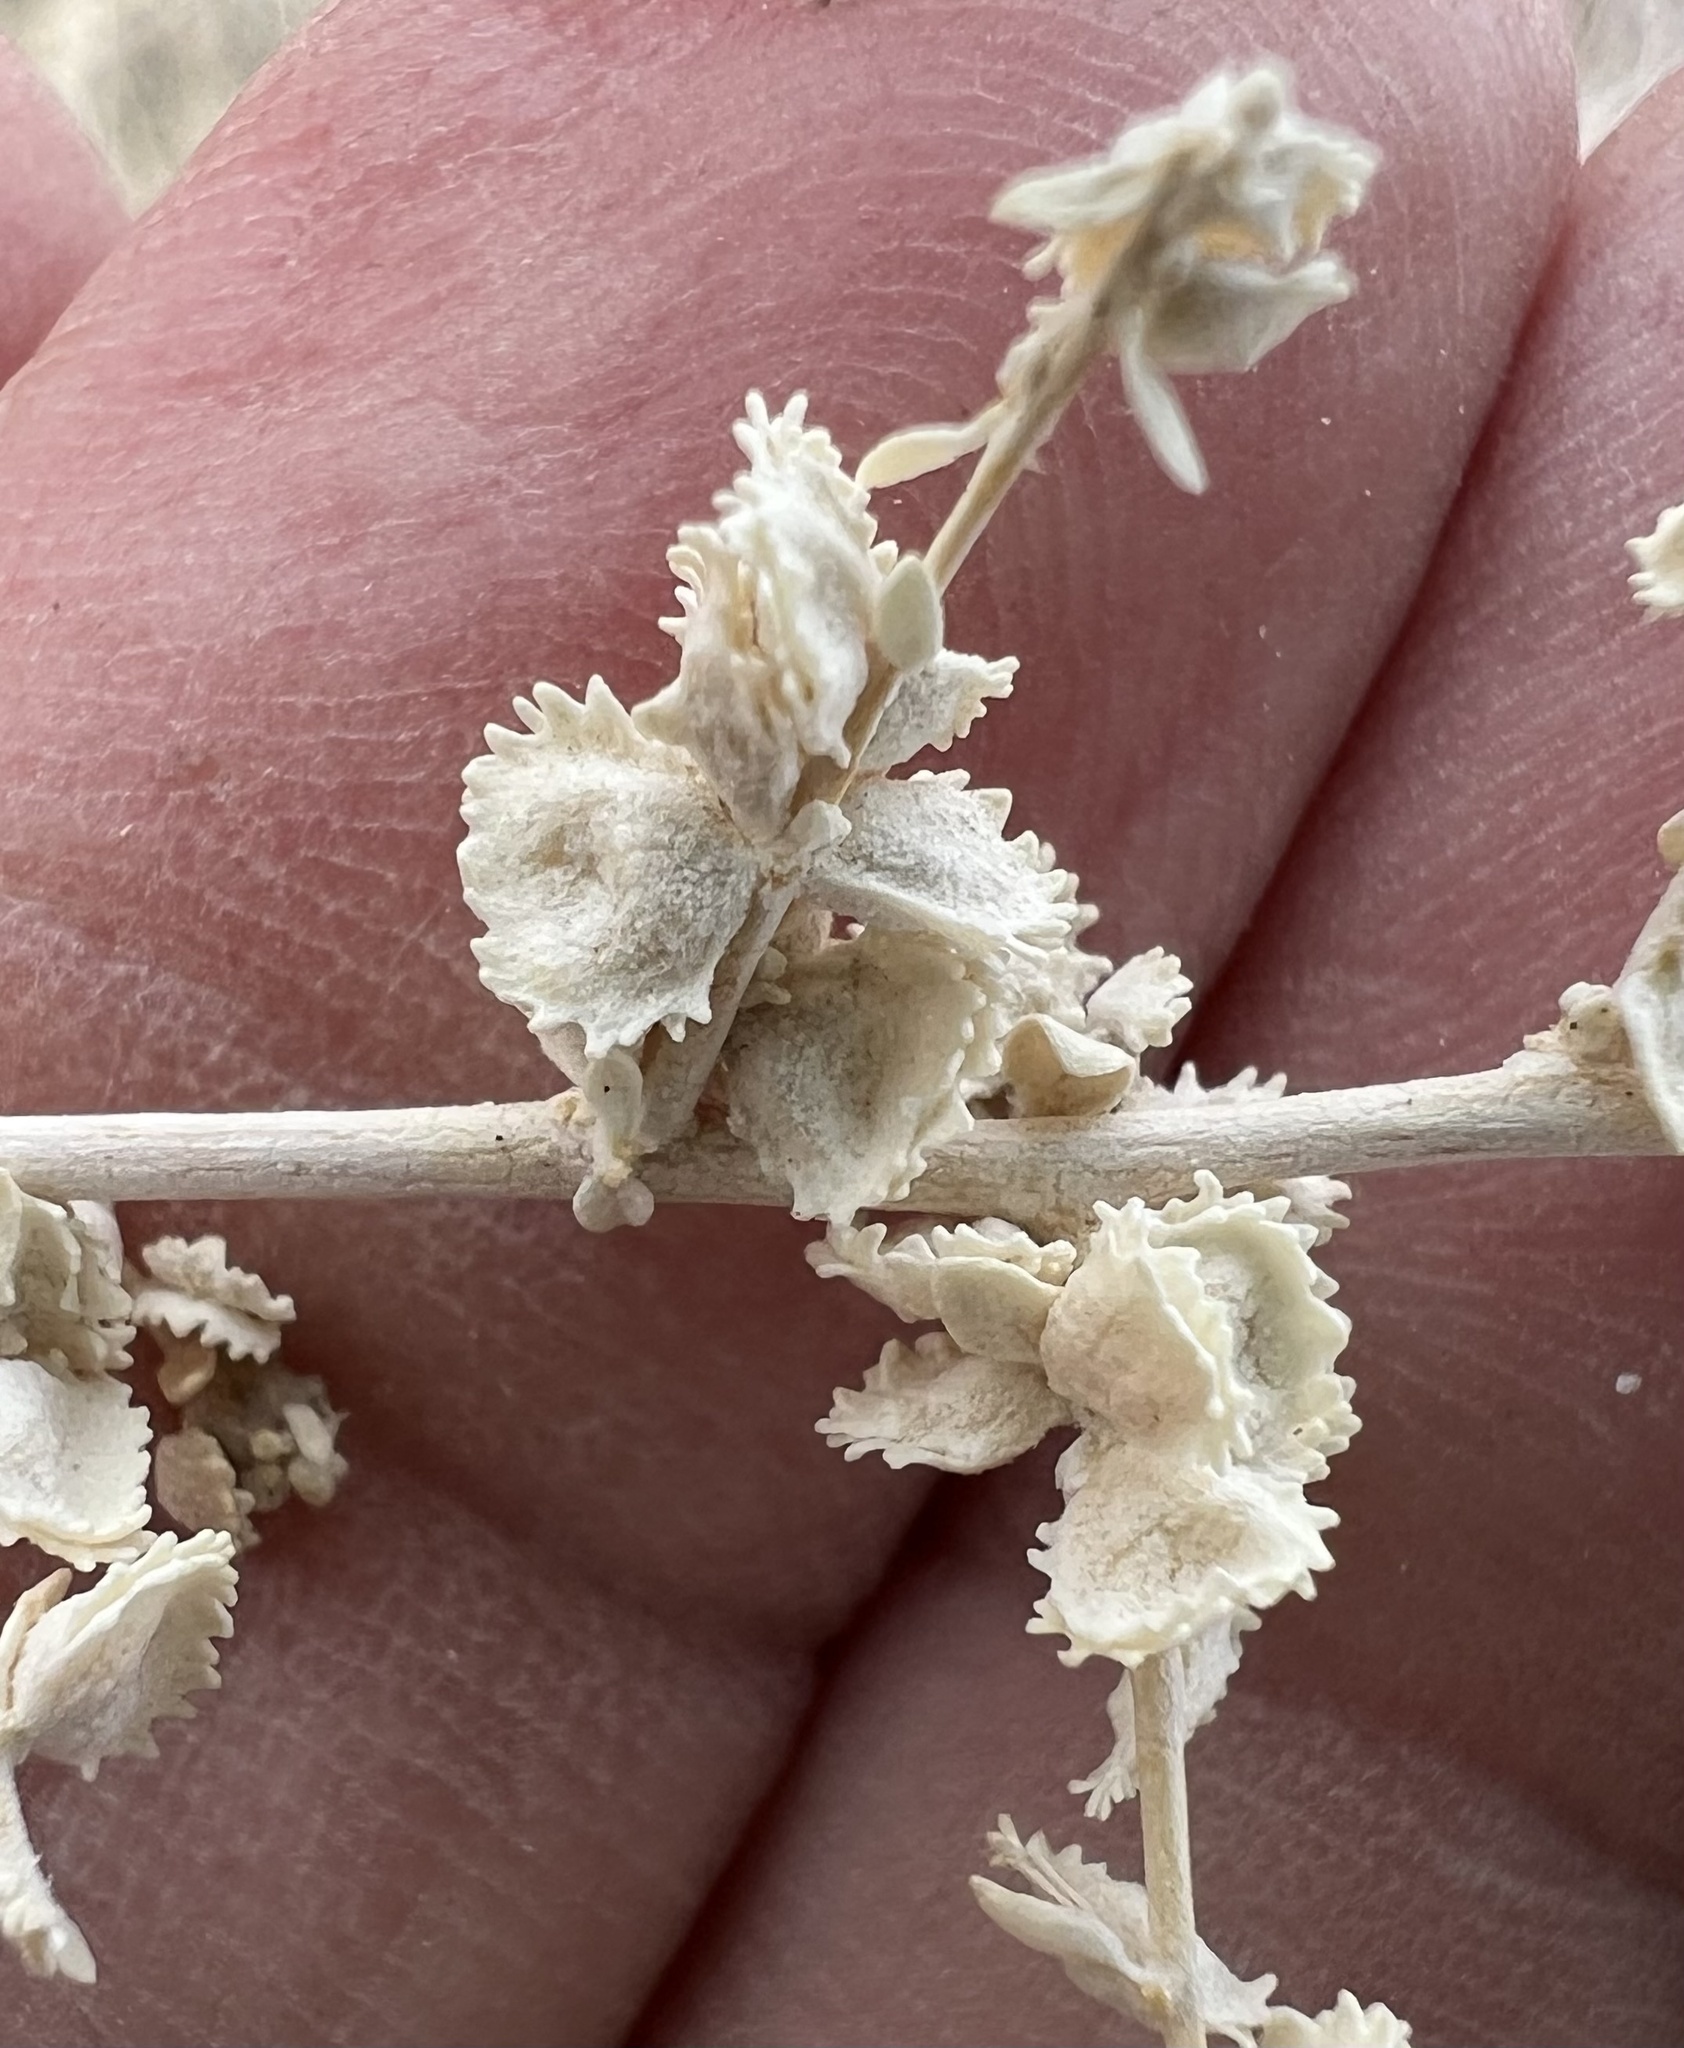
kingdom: Plantae
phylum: Tracheophyta
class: Magnoliopsida
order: Caryophyllales
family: Amaranthaceae
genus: Atriplex
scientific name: Atriplex polycarpa
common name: Desert saltbush
